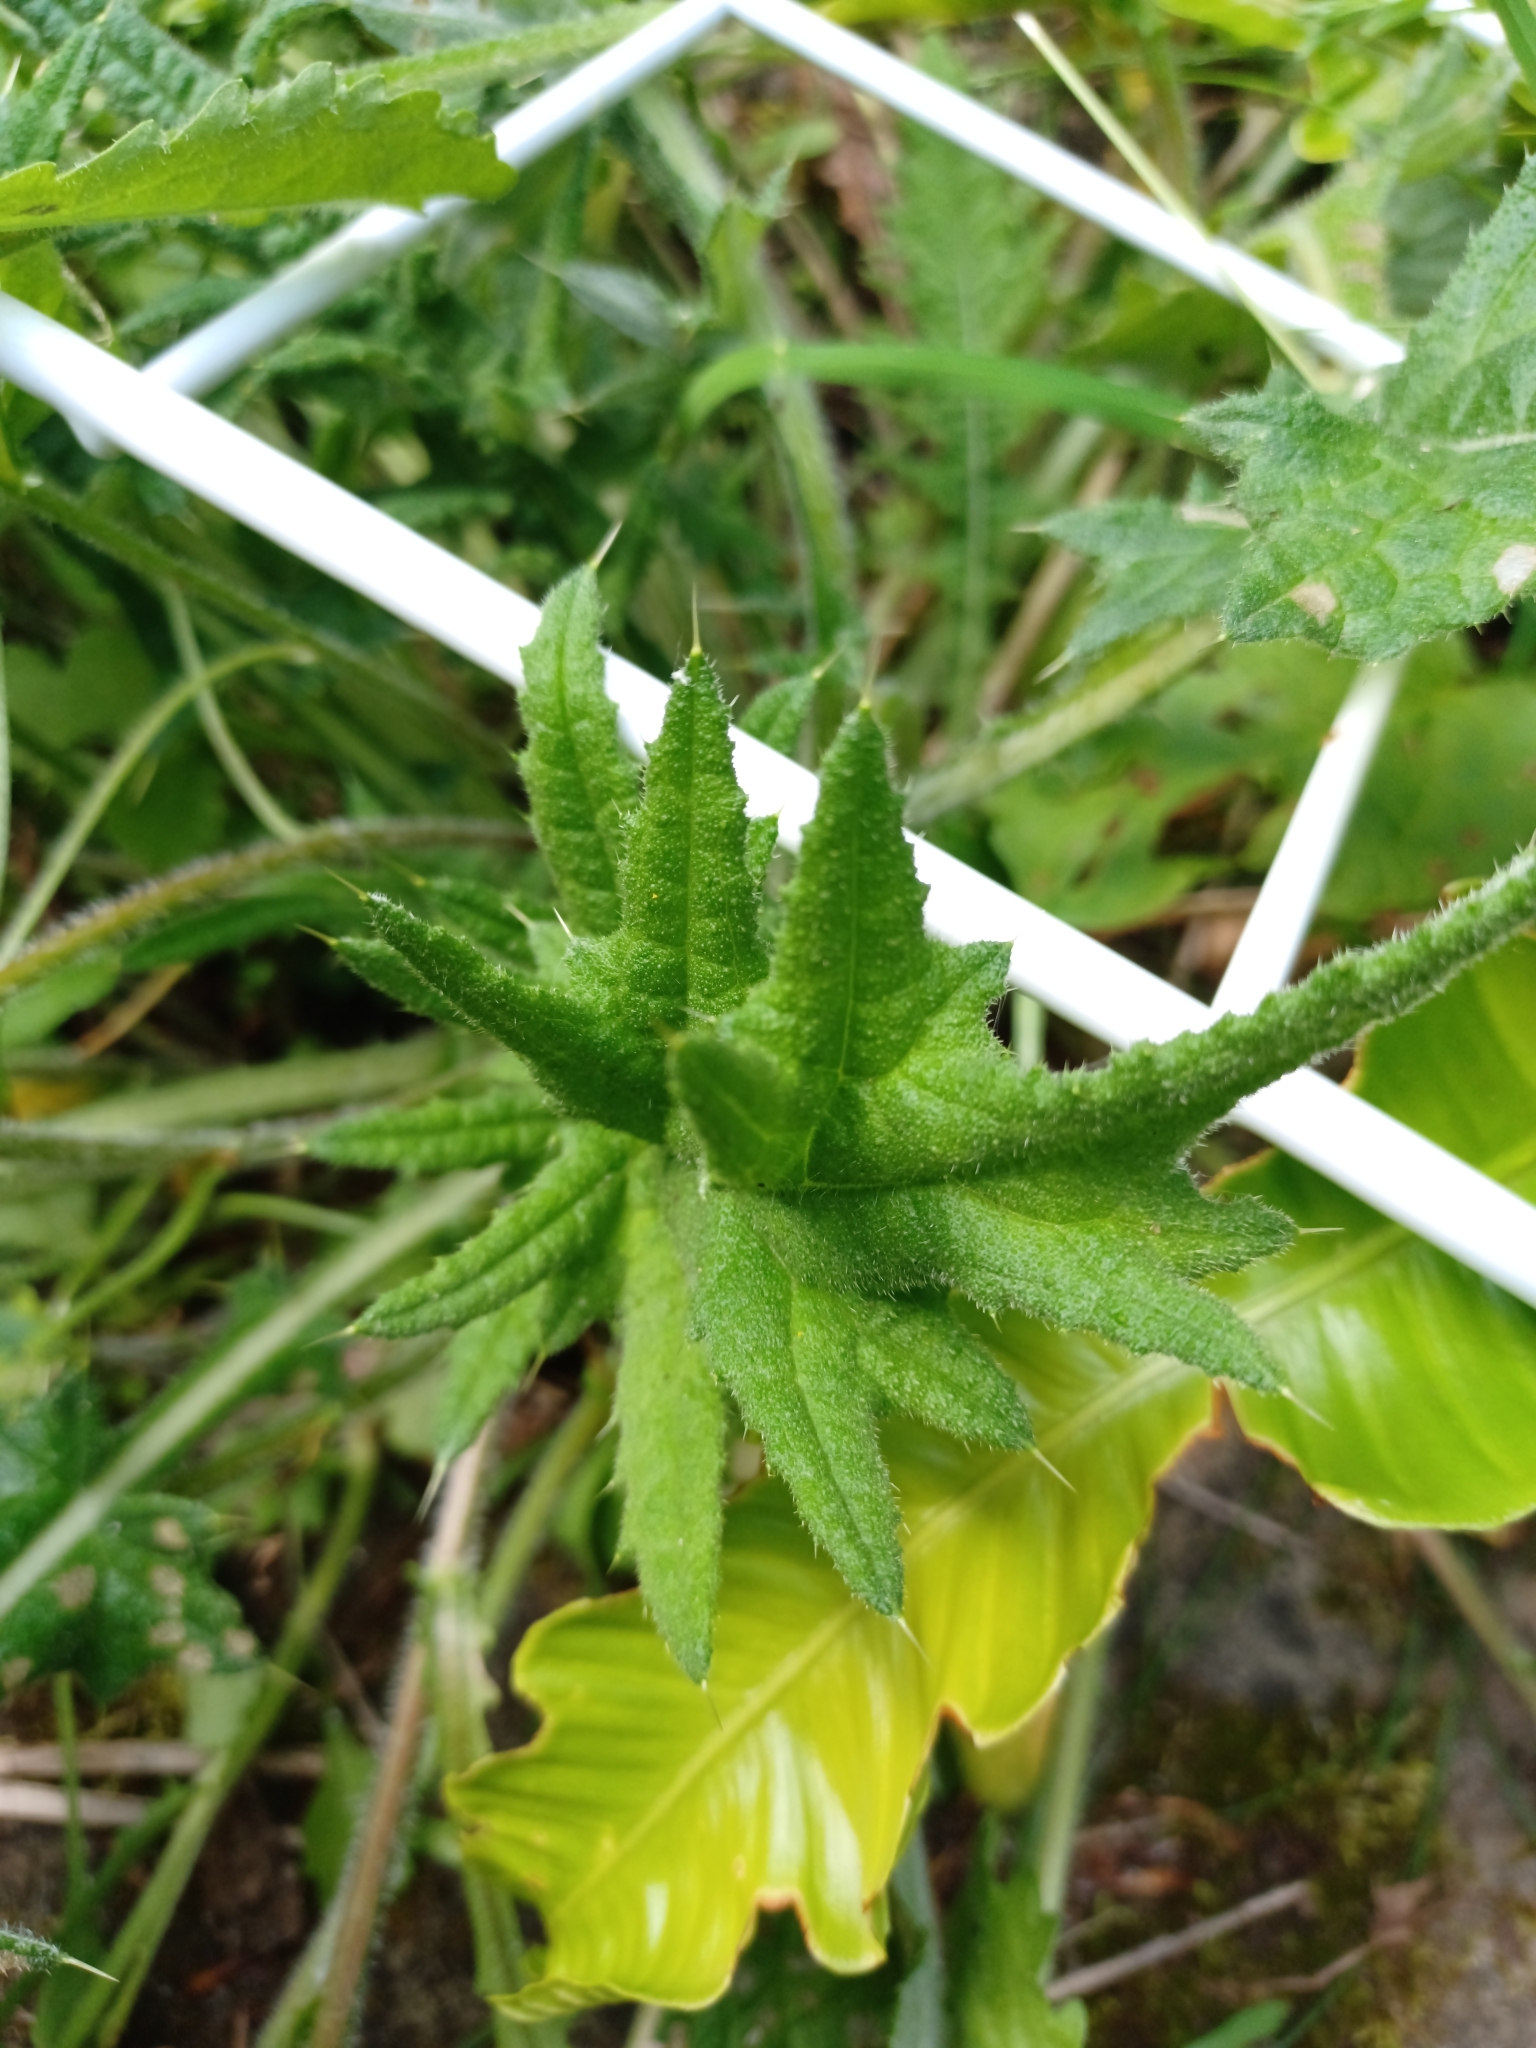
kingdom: Plantae
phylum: Tracheophyta
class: Magnoliopsida
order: Asterales
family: Asteraceae
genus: Cirsium
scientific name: Cirsium vulgare
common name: Bull thistle
